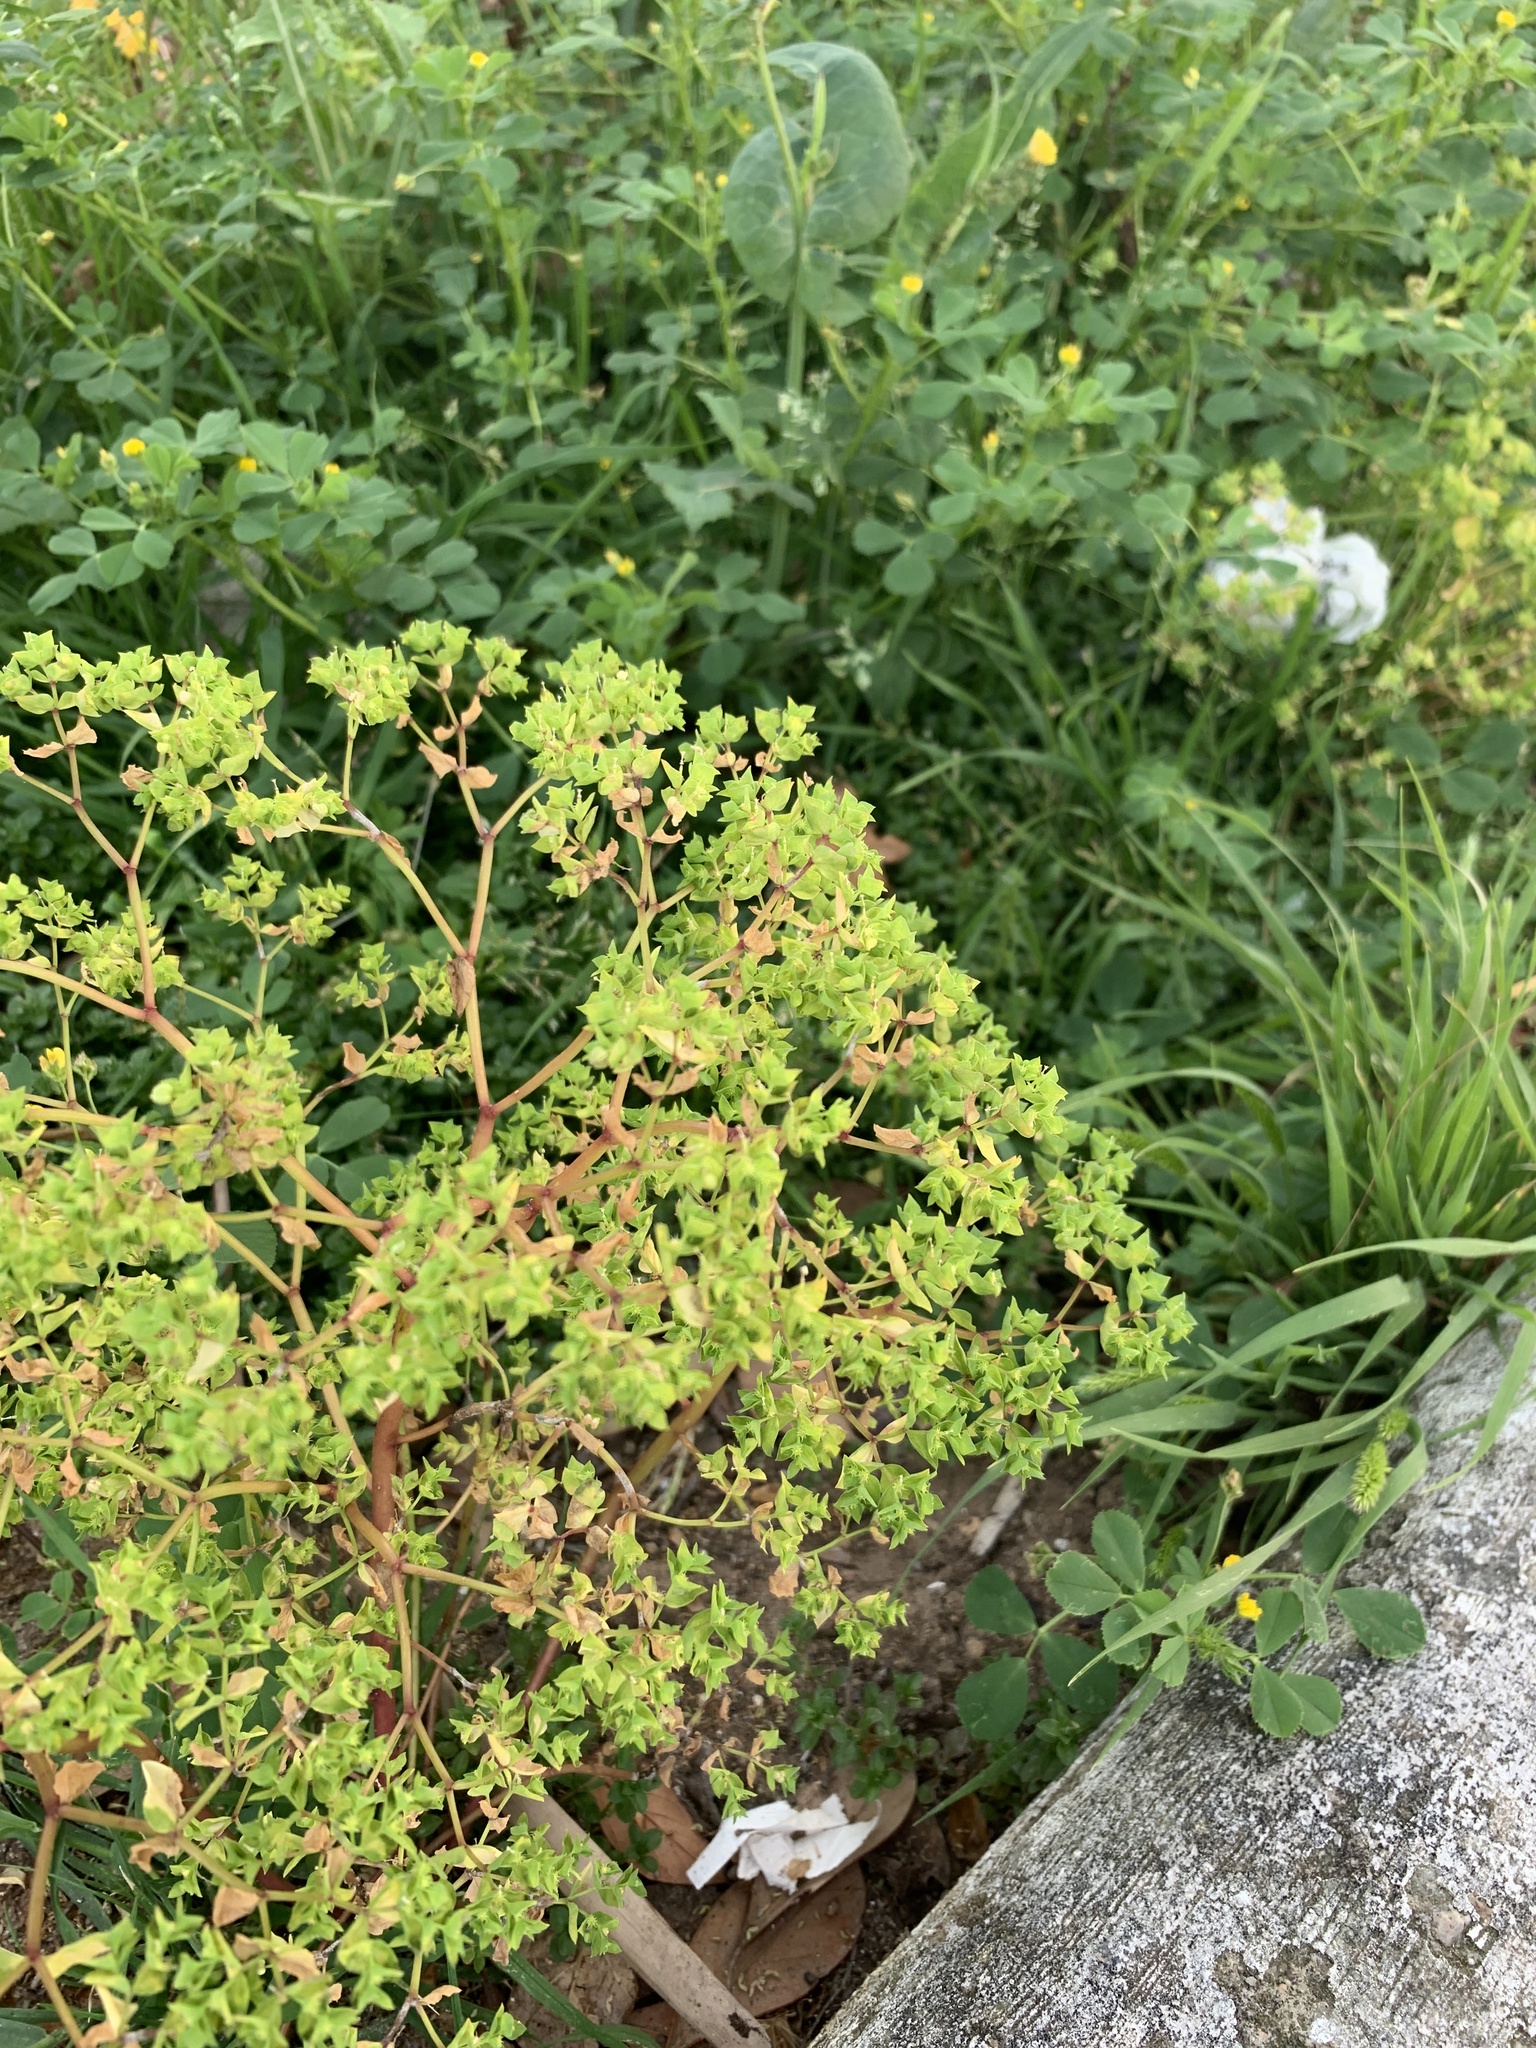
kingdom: Plantae
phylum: Tracheophyta
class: Magnoliopsida
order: Malpighiales
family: Euphorbiaceae
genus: Euphorbia
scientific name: Euphorbia peplus
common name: Petty spurge
